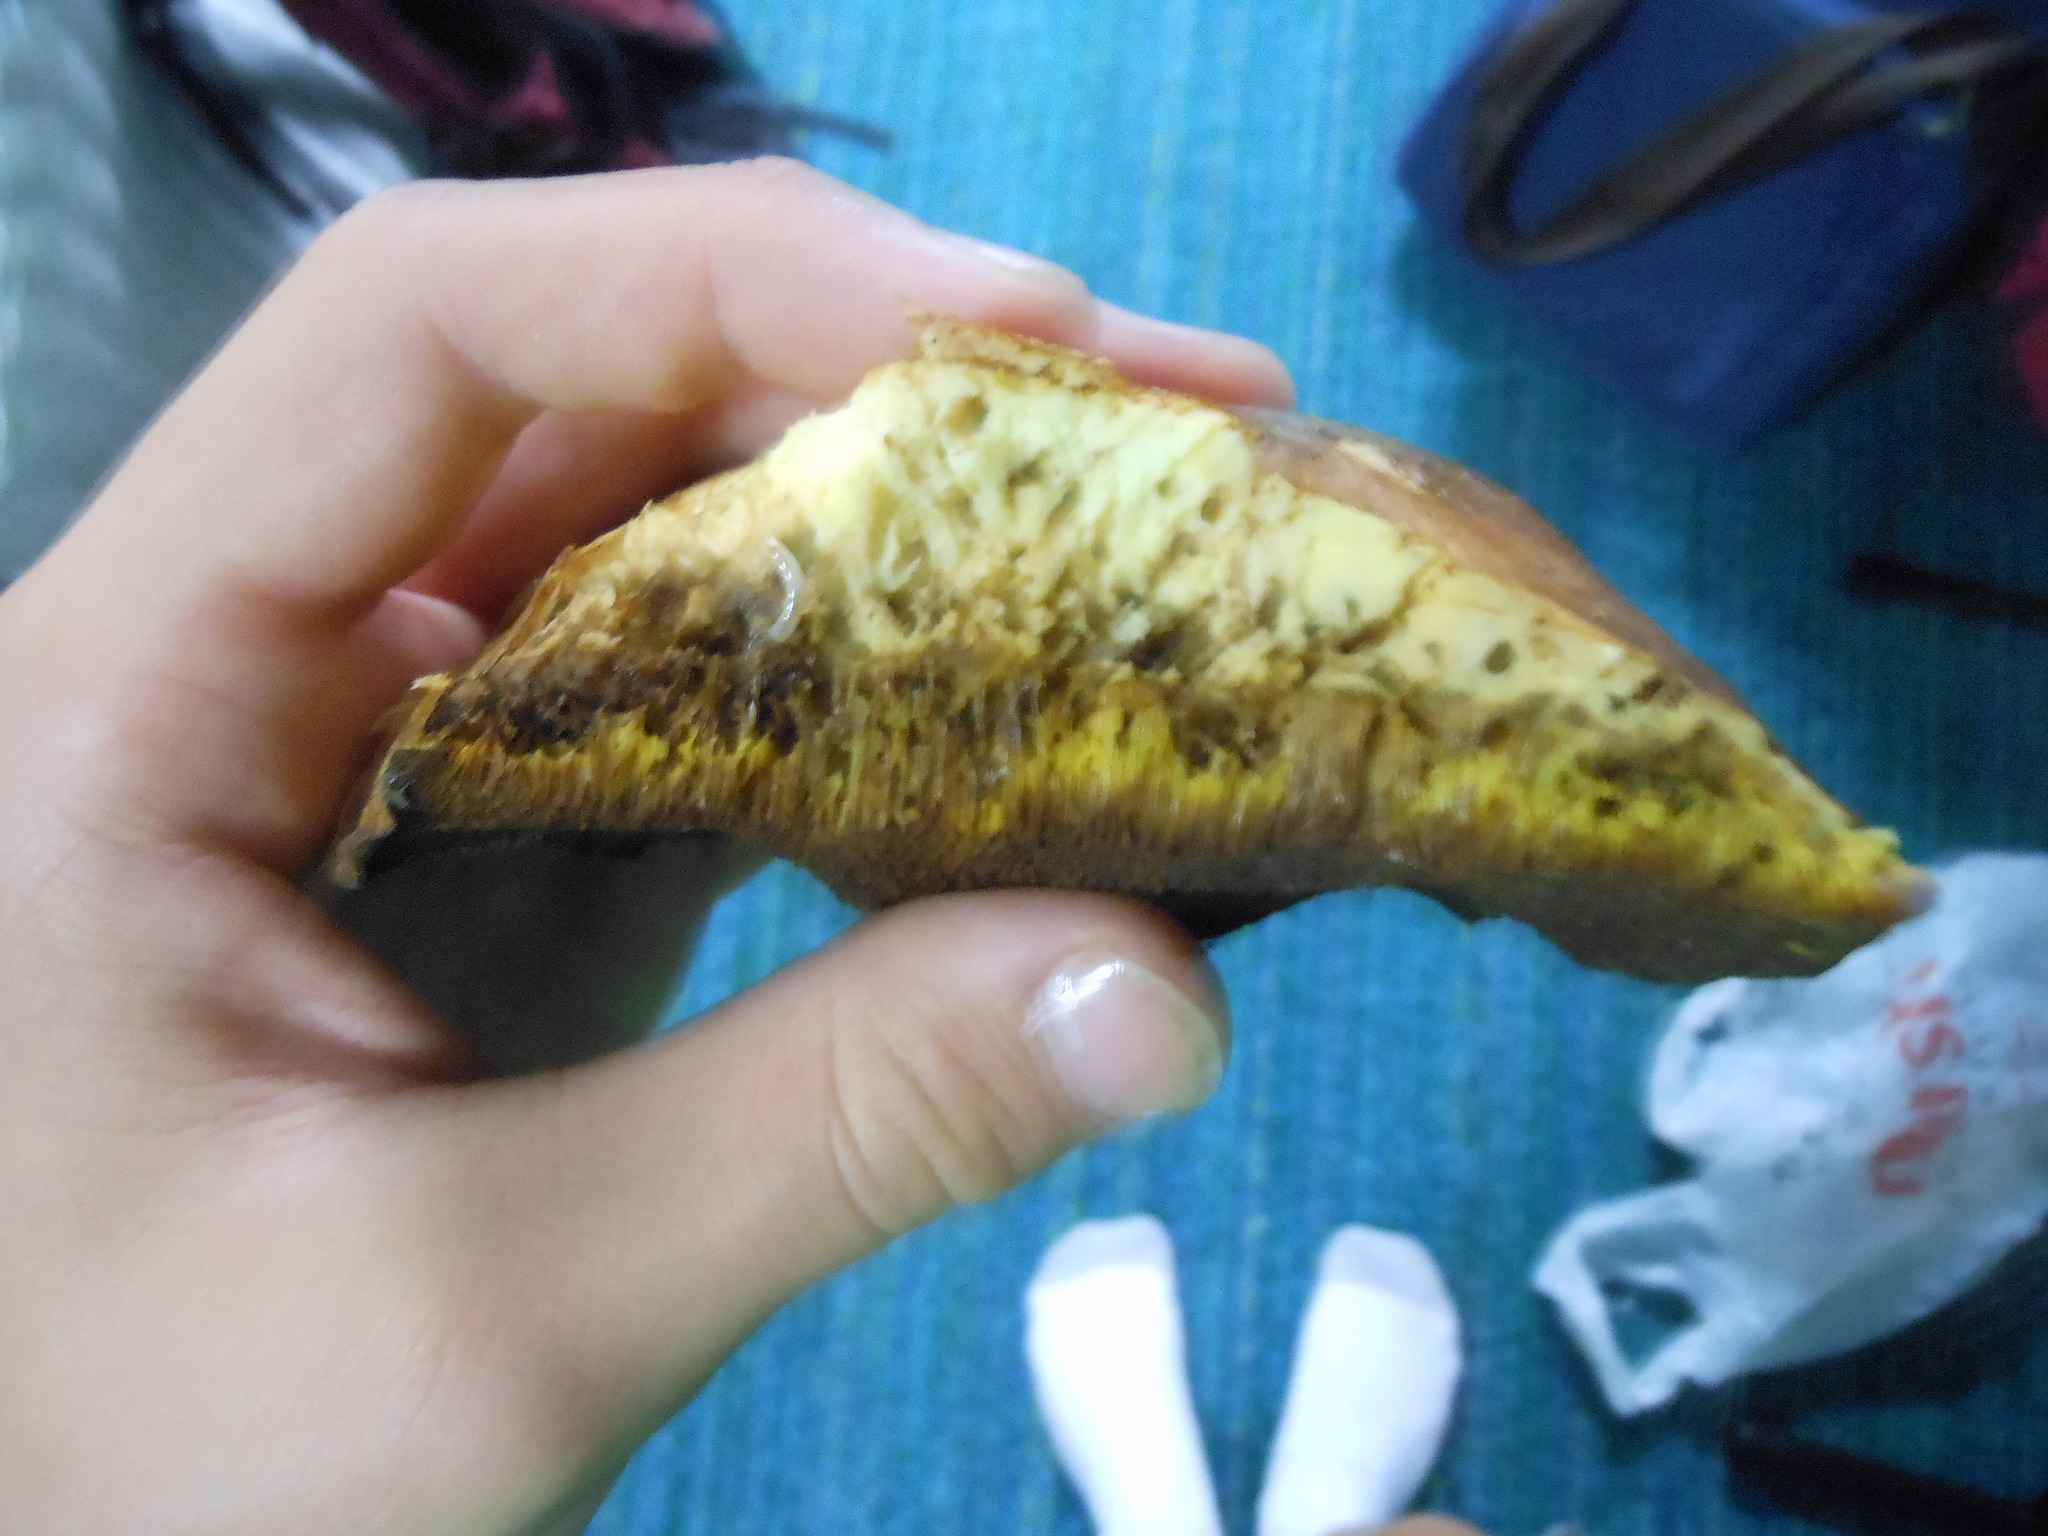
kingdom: Fungi
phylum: Basidiomycota
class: Agaricomycetes
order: Boletales
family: Suillaceae
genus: Suillus
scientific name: Suillus brevipes
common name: Short-stalked suillus
